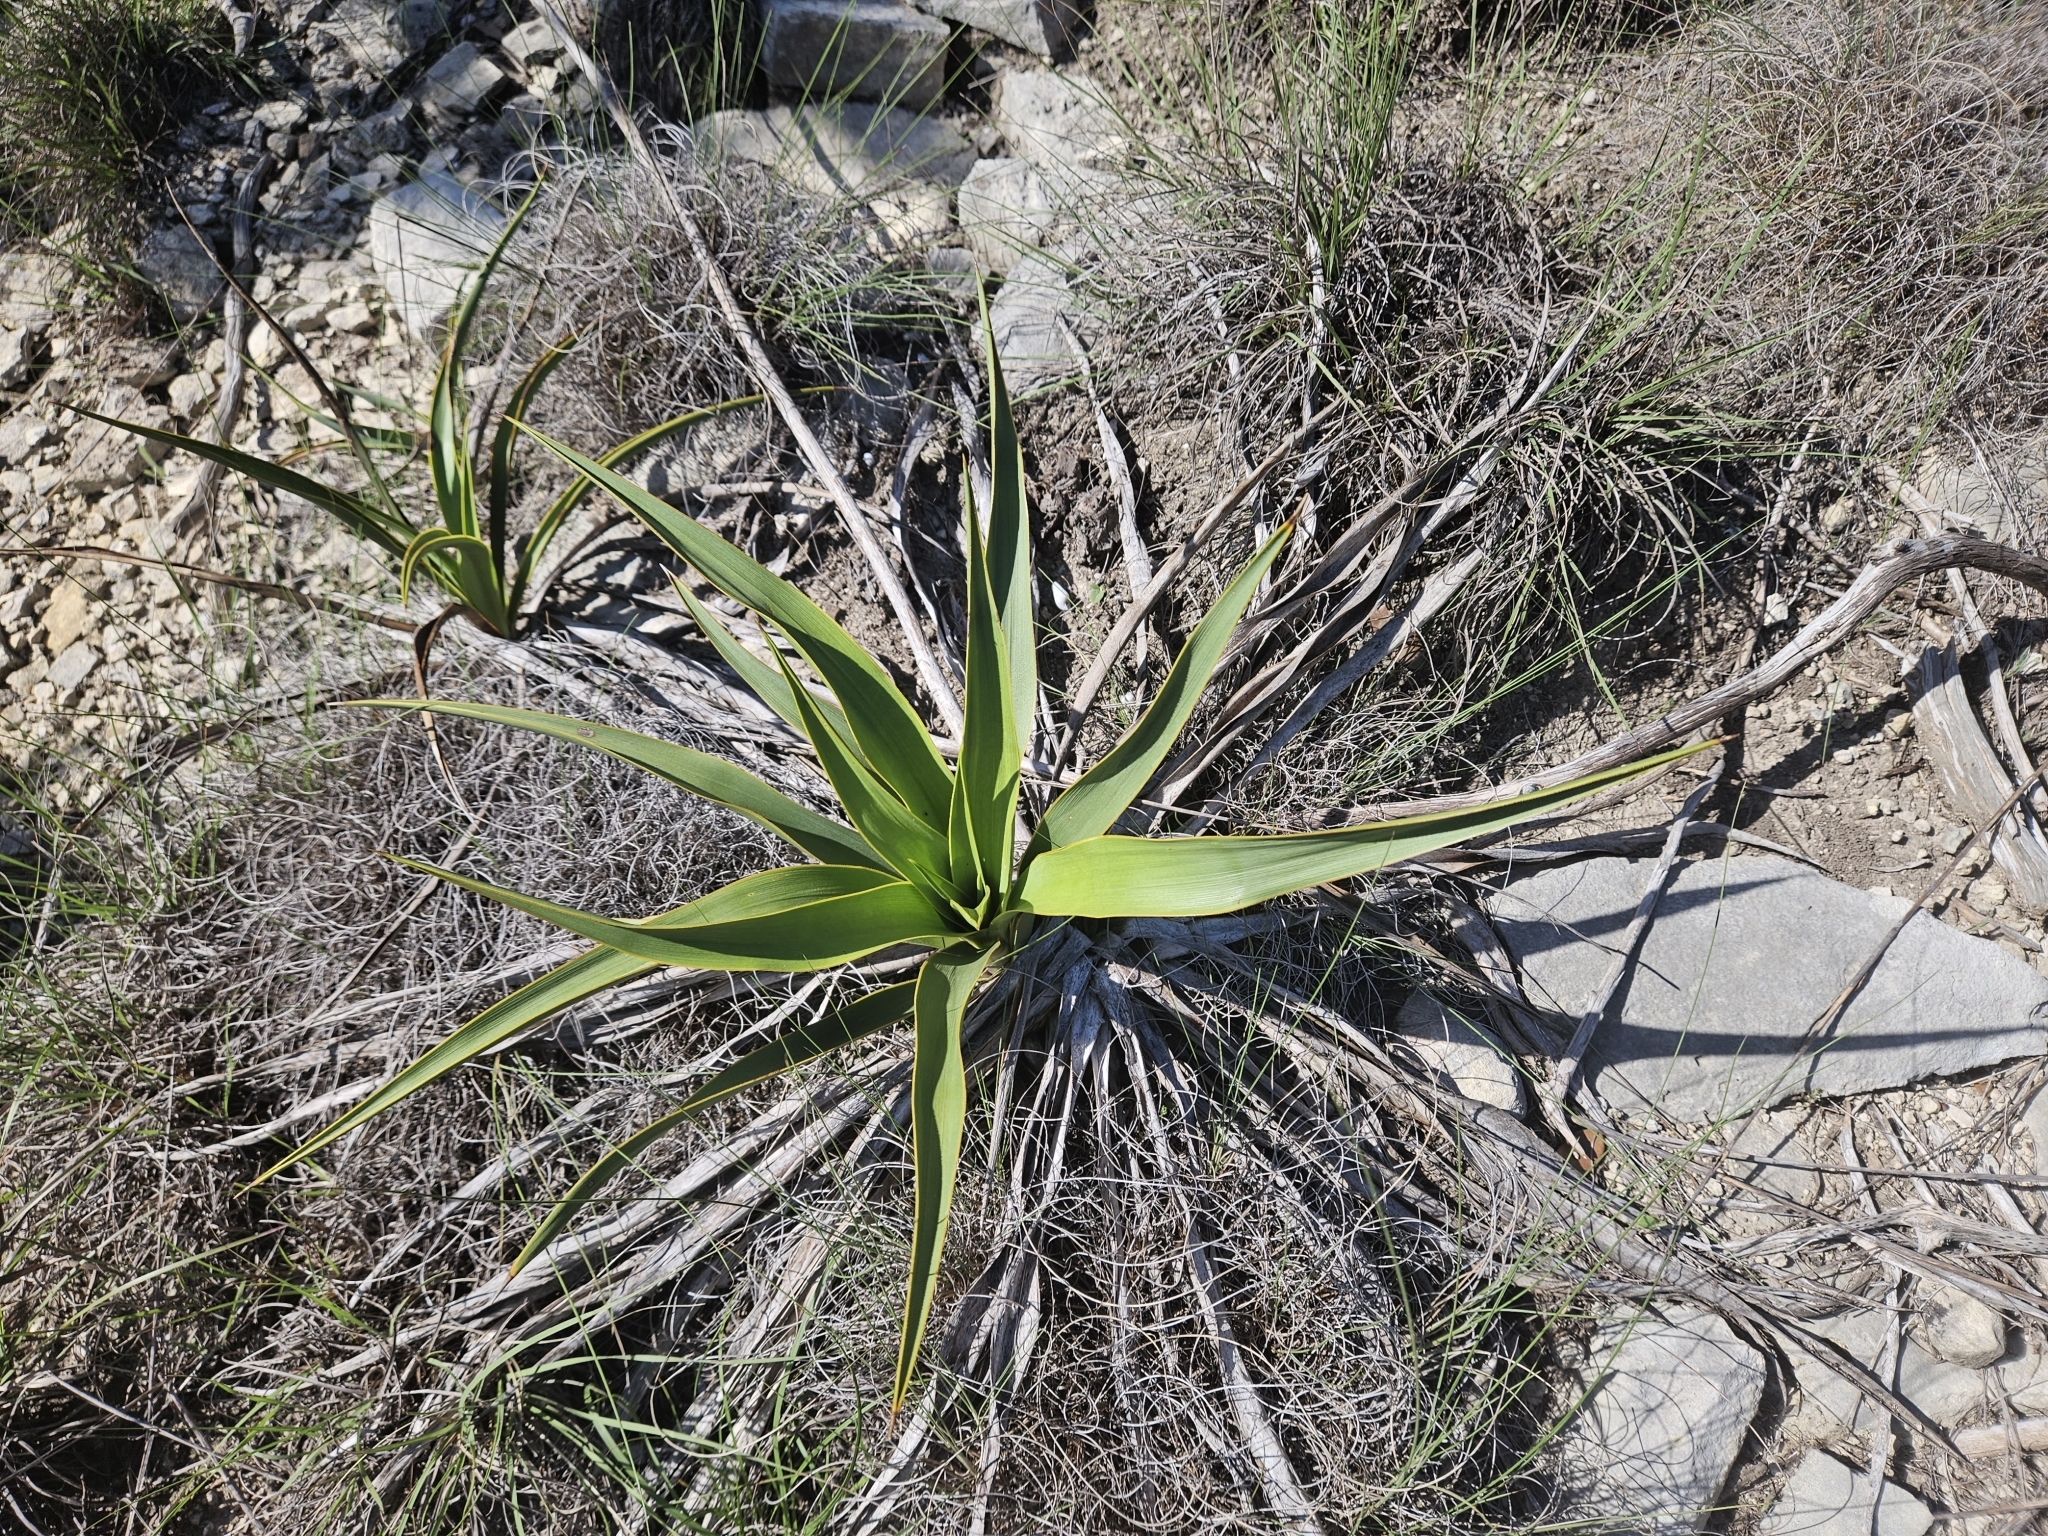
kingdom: Plantae
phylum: Tracheophyta
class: Liliopsida
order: Asparagales
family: Asparagaceae
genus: Yucca
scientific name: Yucca rupicola
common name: Twisted-leaf spanish-dagger
